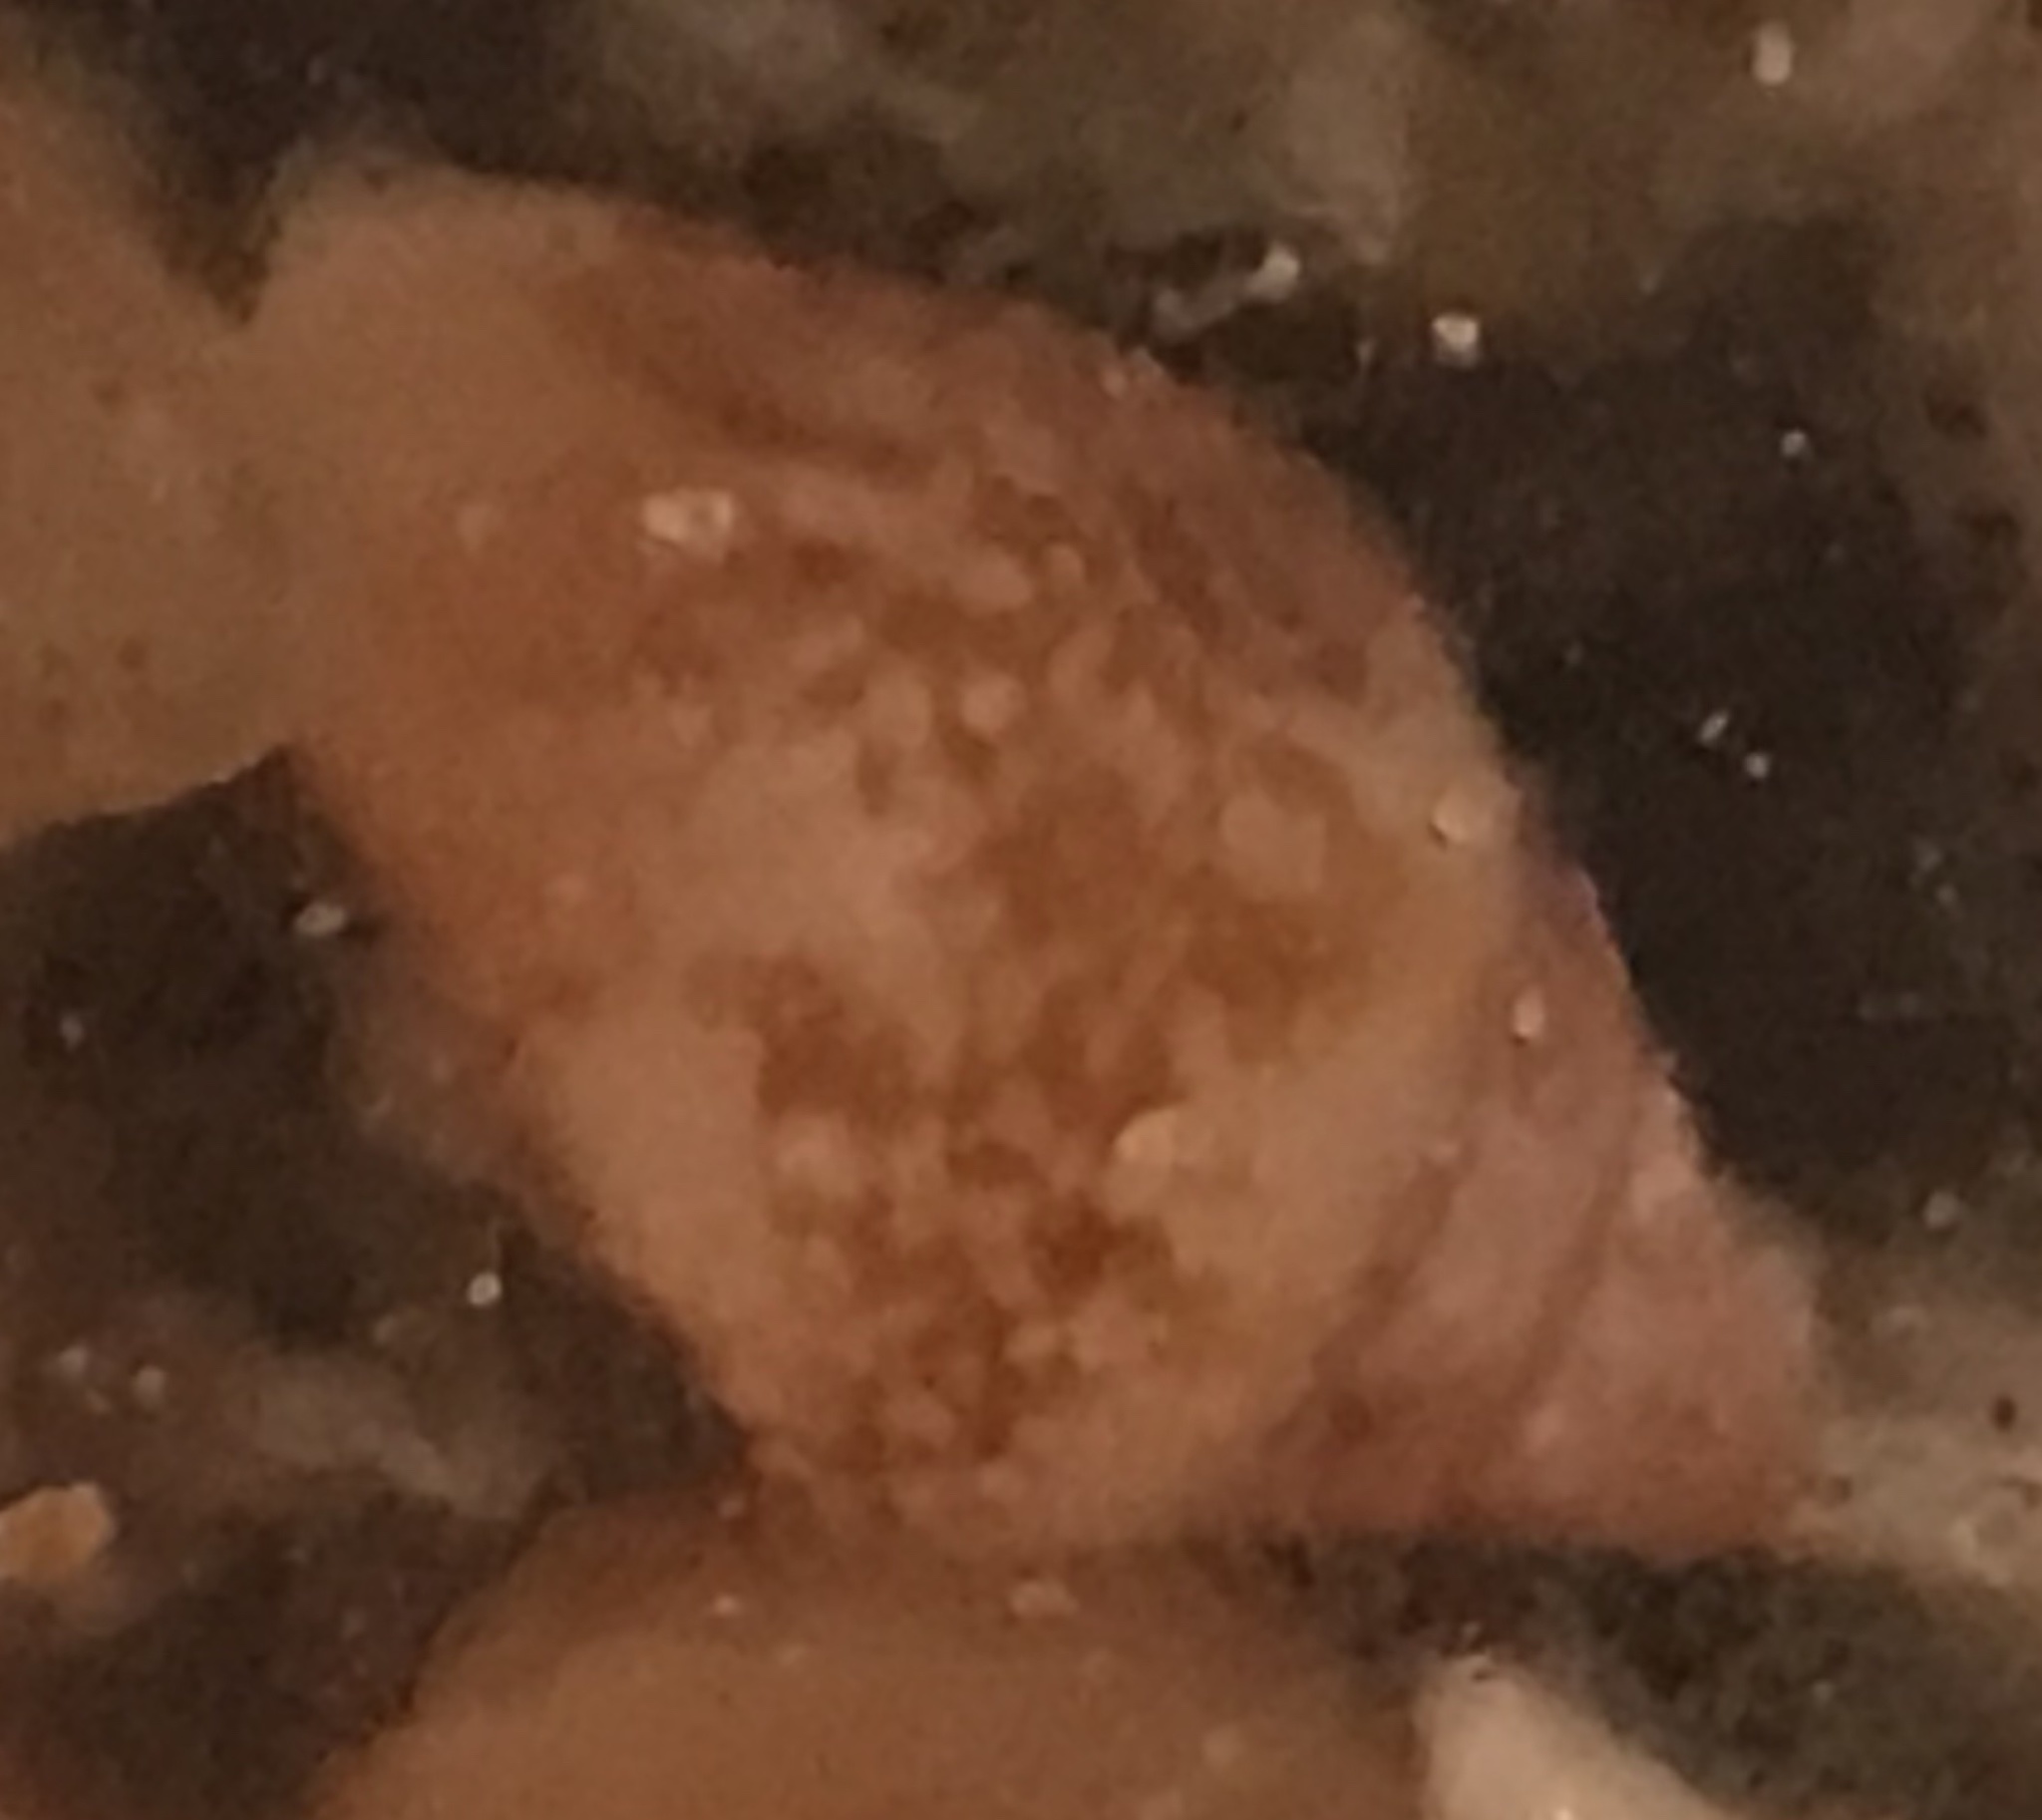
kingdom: Animalia
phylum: Mollusca
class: Gastropoda
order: Neogastropoda
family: Columbellidae
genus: Columbella
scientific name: Columbella rustica
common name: Rustic dove shell
